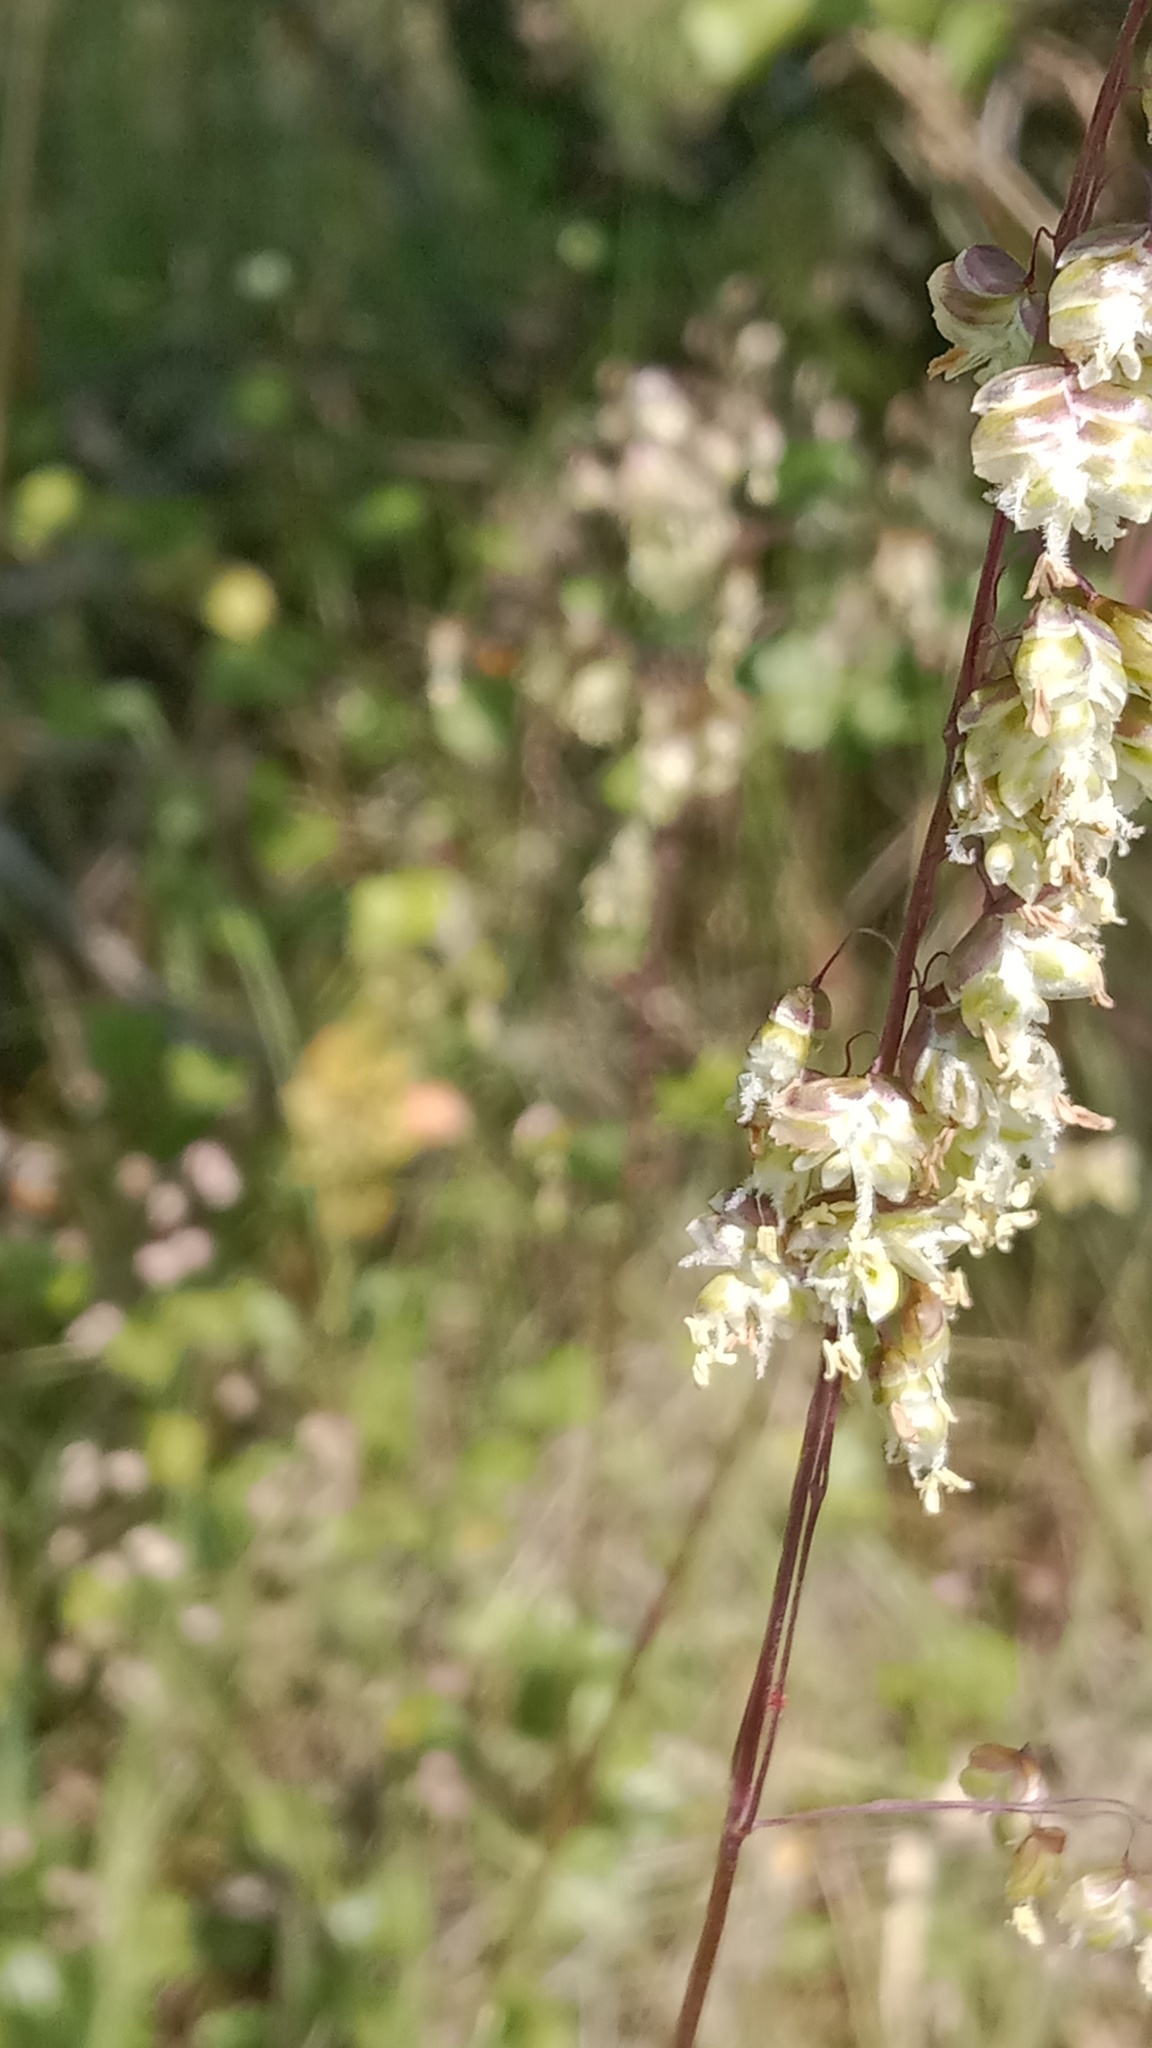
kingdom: Plantae
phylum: Tracheophyta
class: Liliopsida
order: Poales
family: Poaceae
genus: Briza
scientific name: Briza media
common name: Quaking grass
